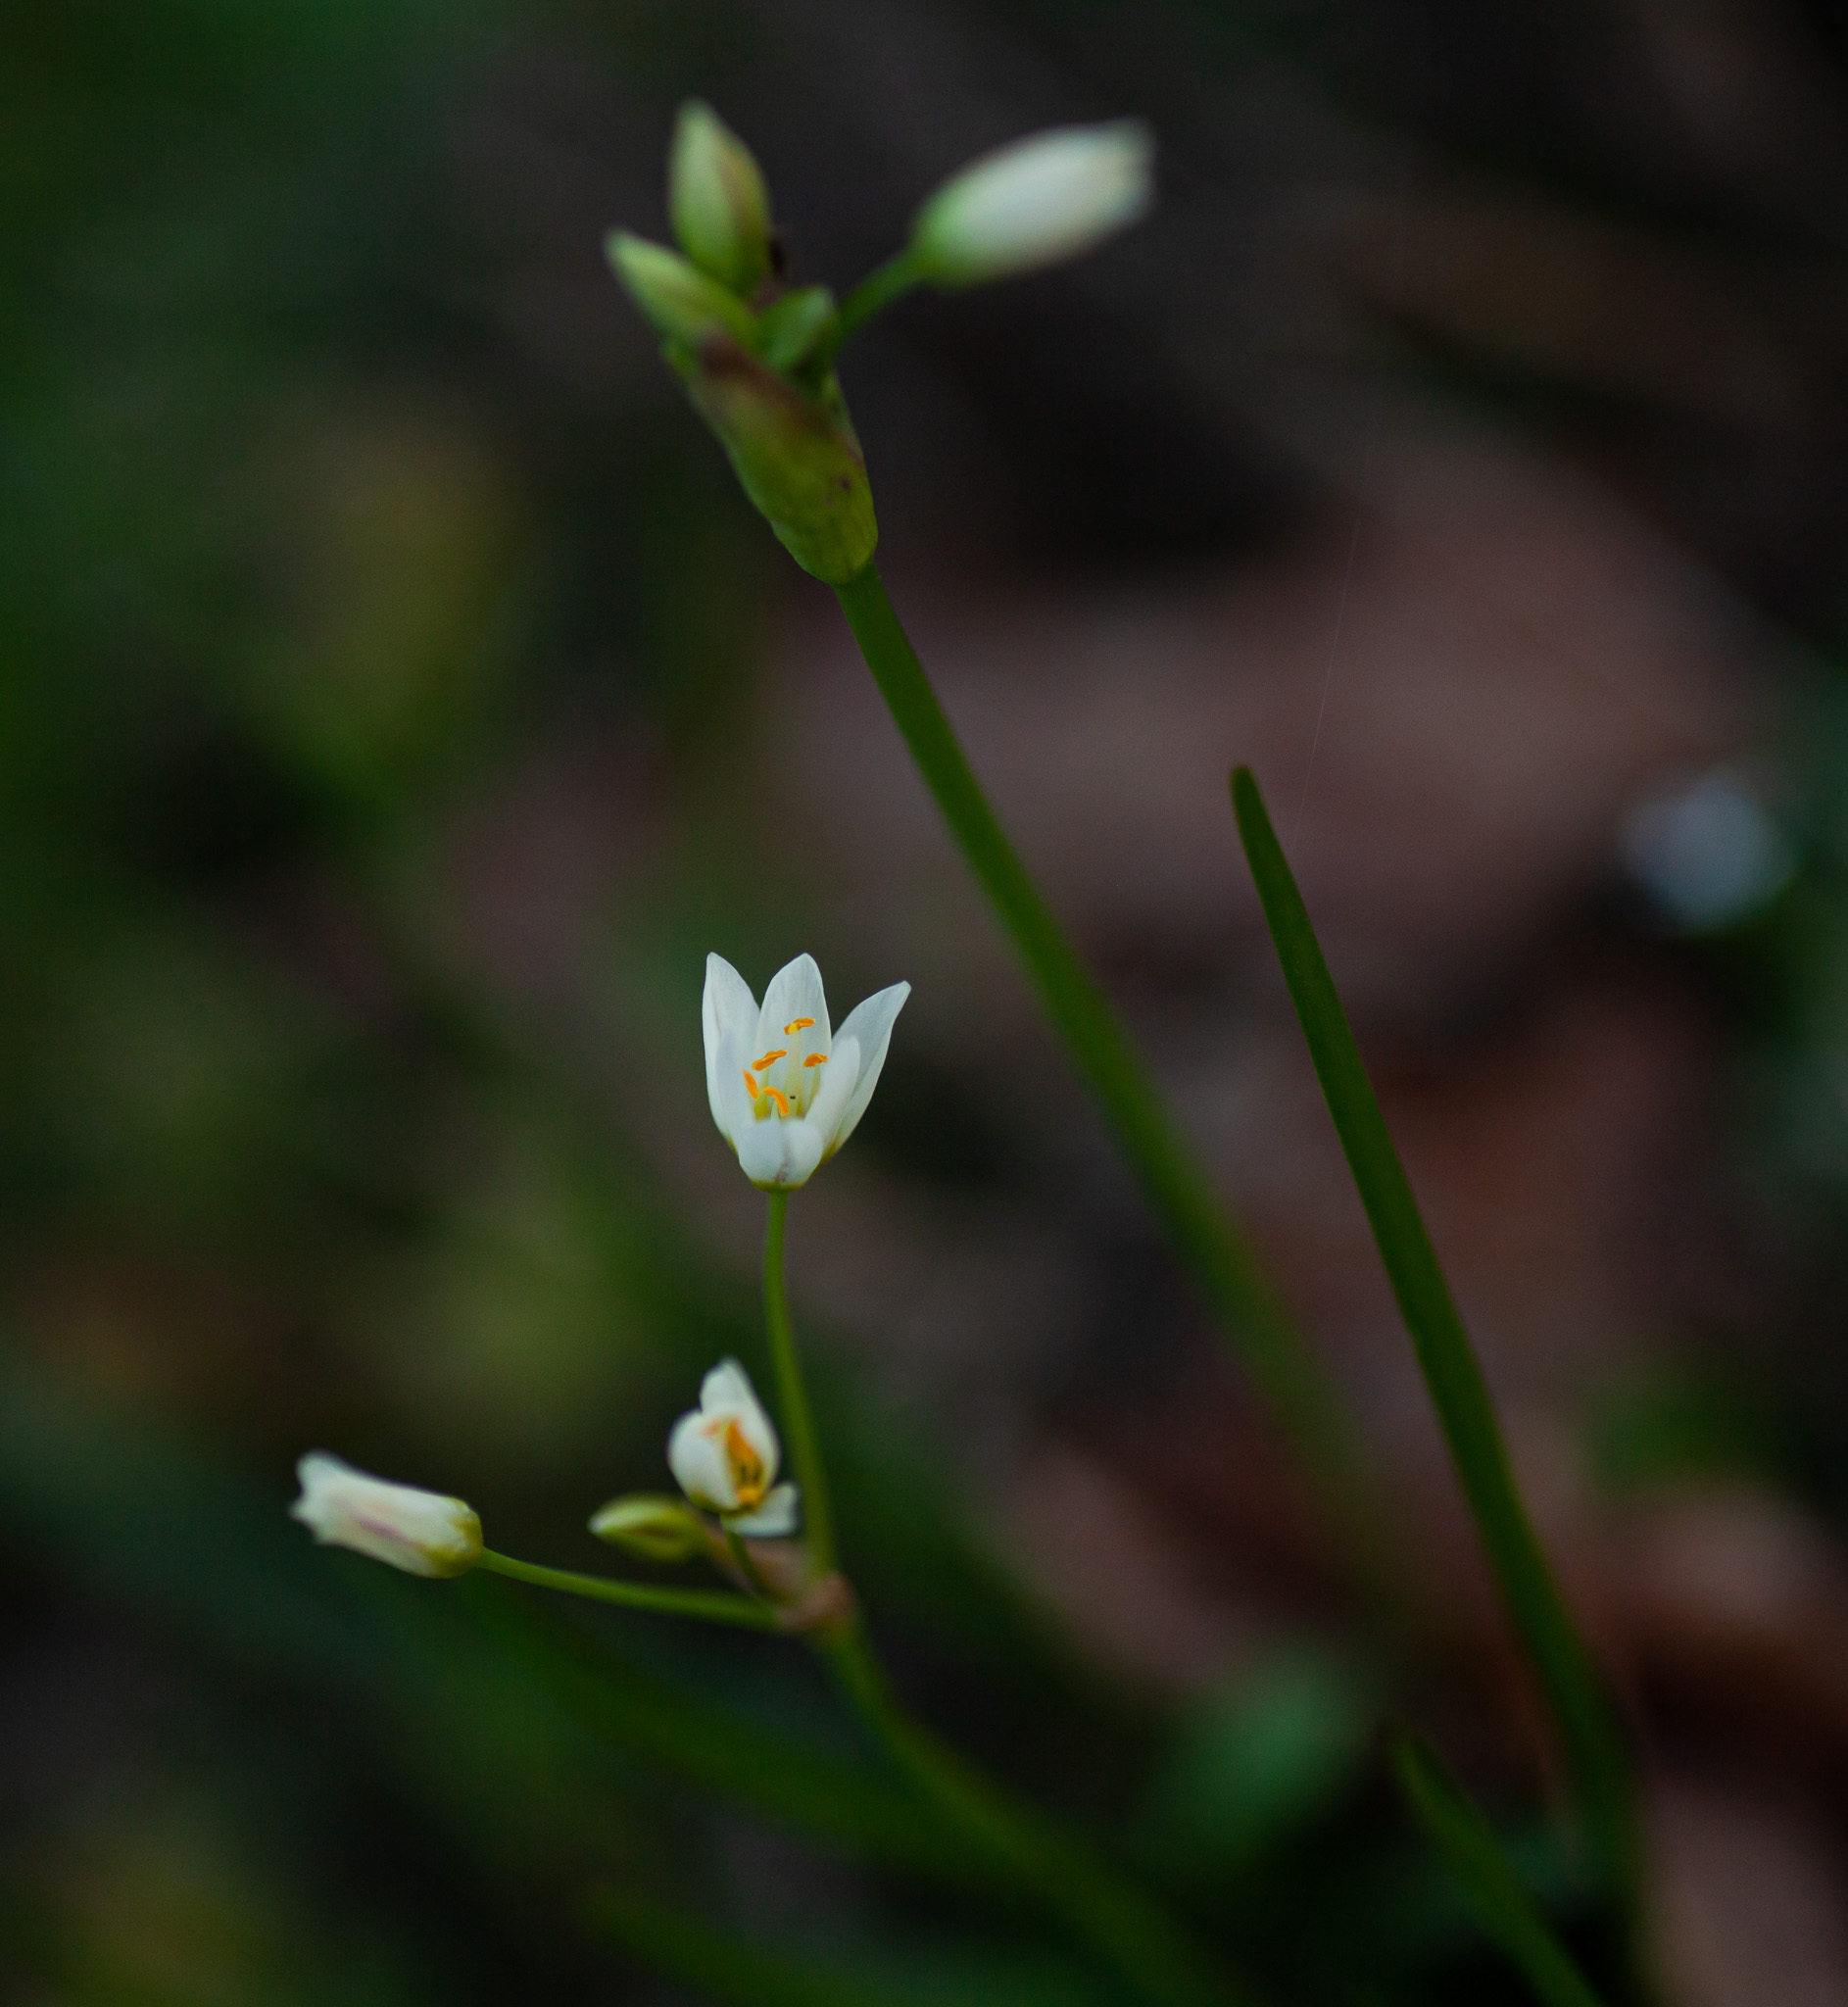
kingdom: Plantae
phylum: Tracheophyta
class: Liliopsida
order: Asparagales
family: Amaryllidaceae
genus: Nothoscordum
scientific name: Nothoscordum bivalve
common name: Crow-poison
